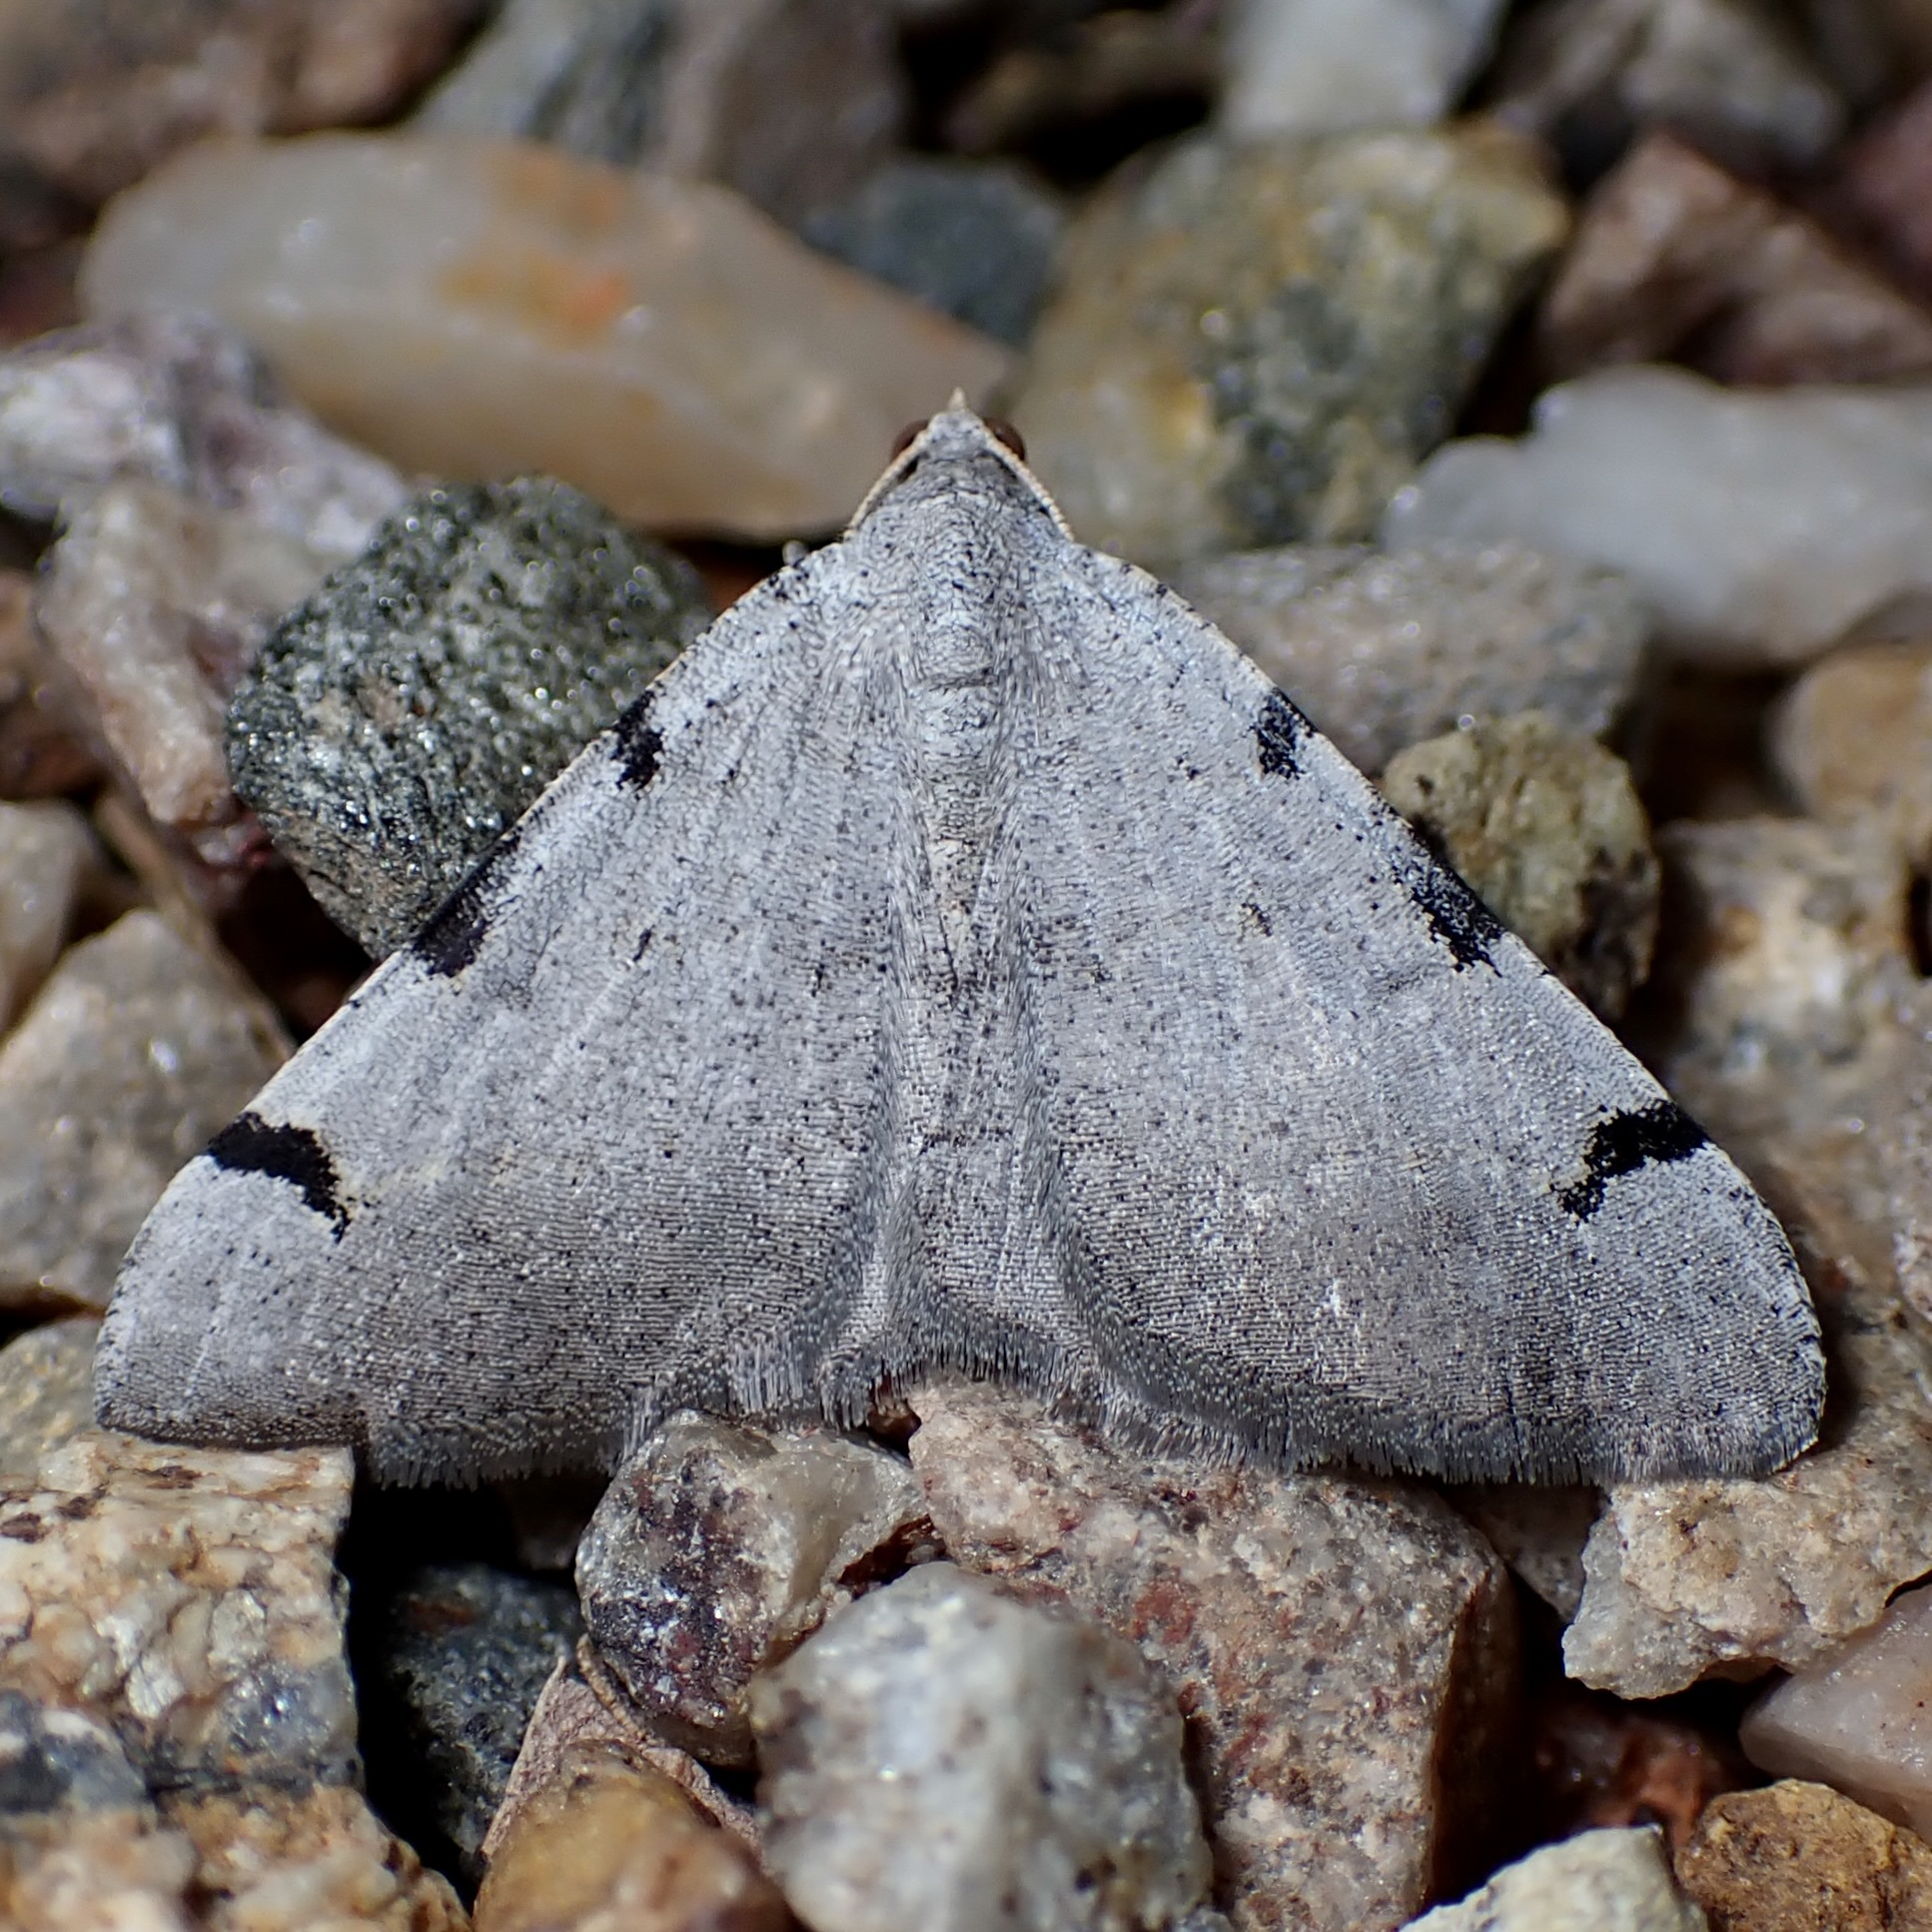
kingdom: Animalia
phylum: Arthropoda
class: Insecta
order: Lepidoptera
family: Geometridae
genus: Digrammia
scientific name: Digrammia triviata
